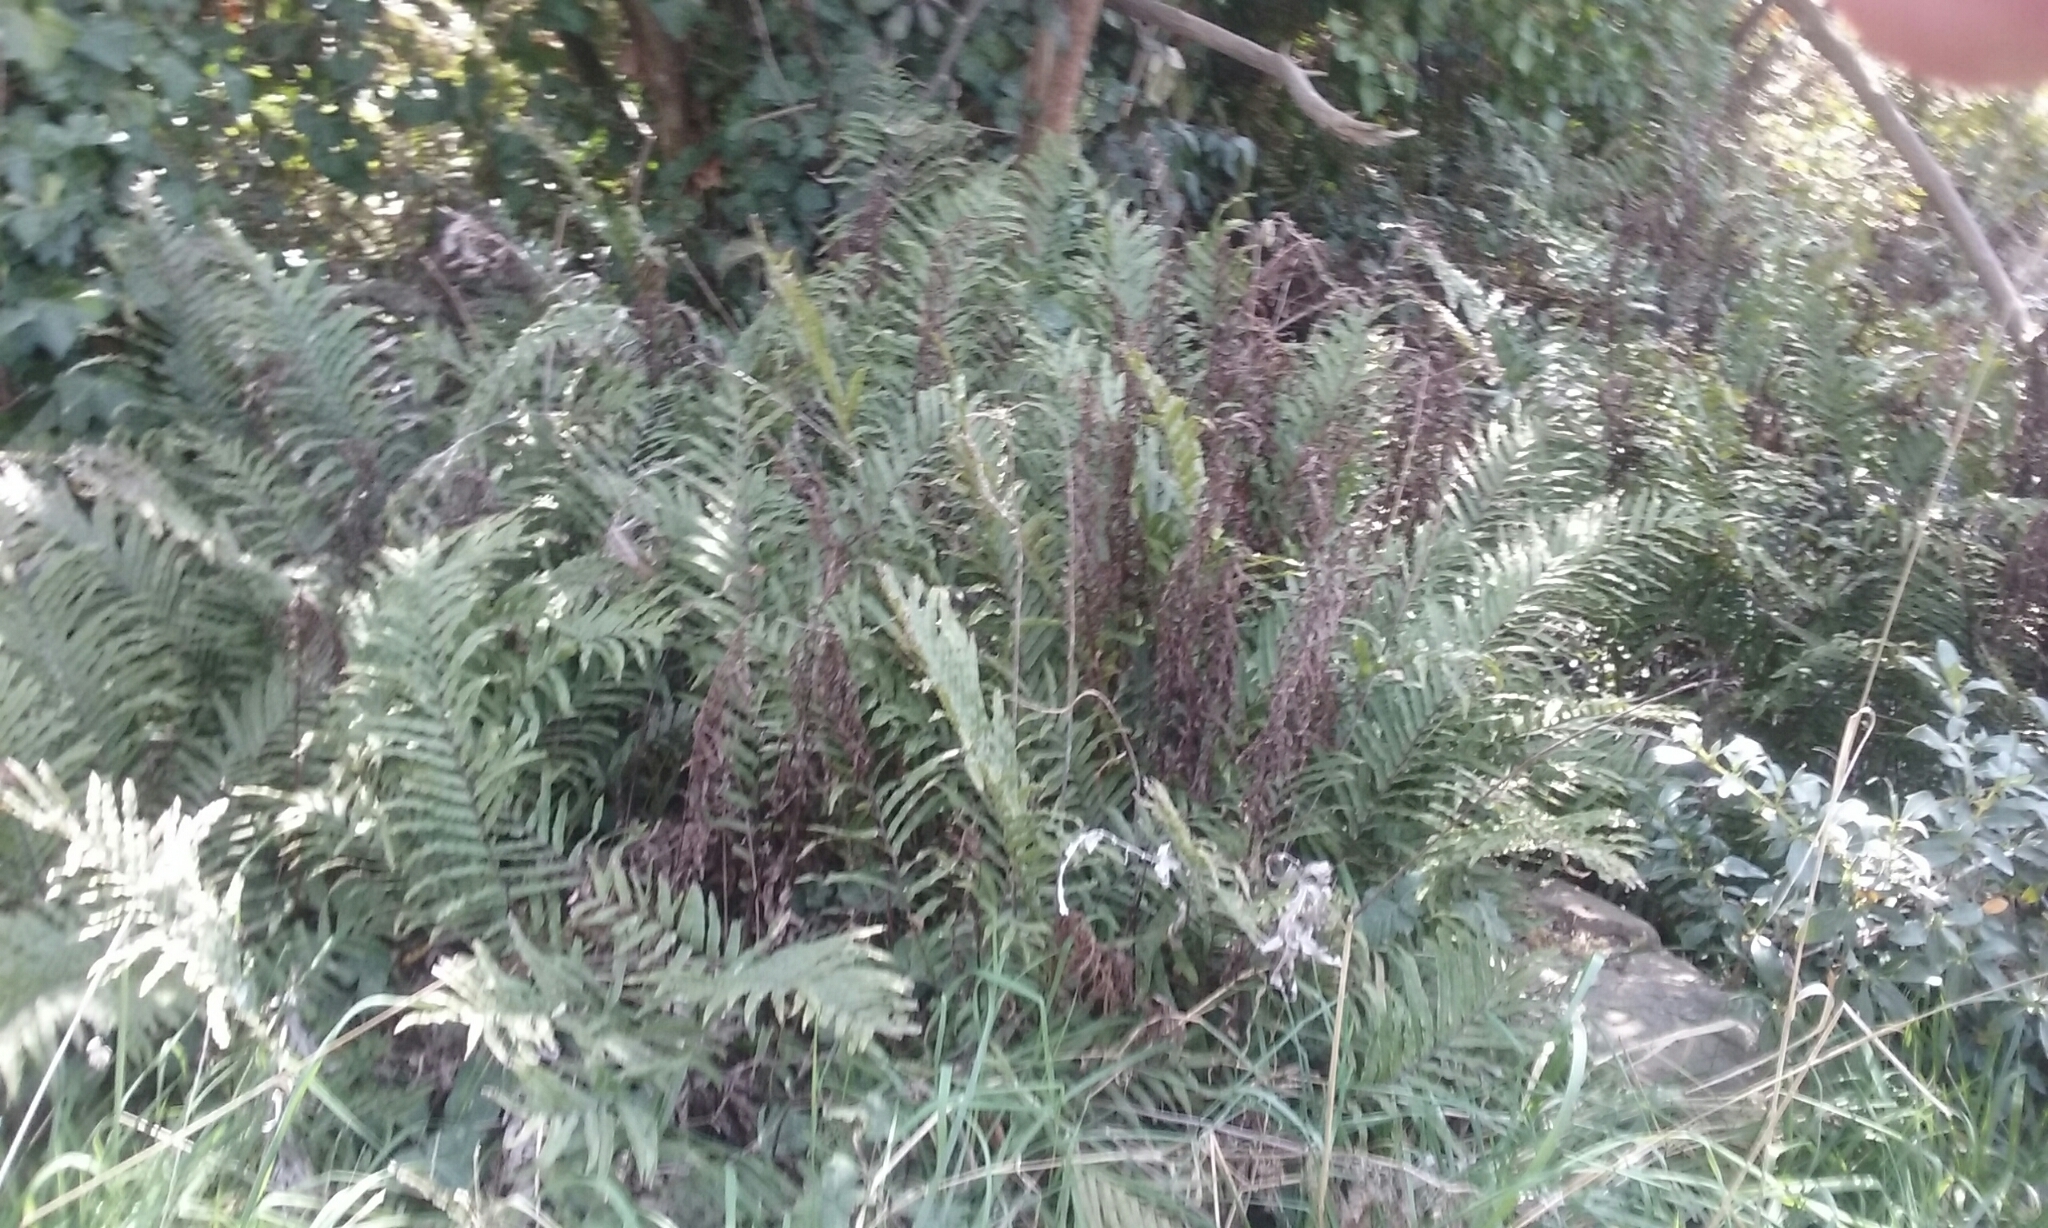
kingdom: Plantae
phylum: Tracheophyta
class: Polypodiopsida
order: Polypodiales
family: Blechnaceae
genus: Parablechnum
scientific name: Parablechnum minus
